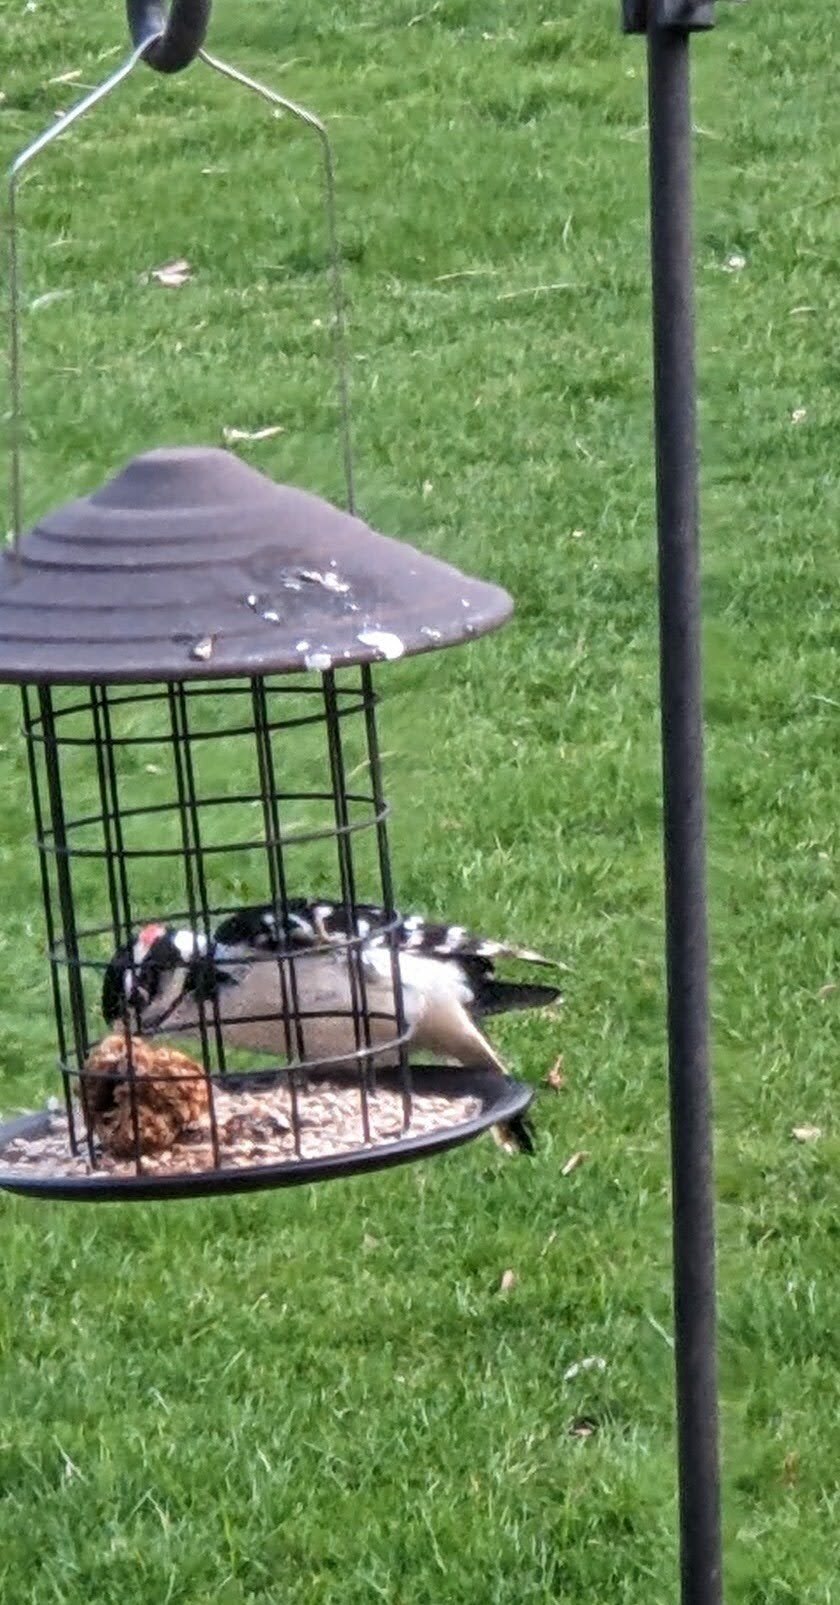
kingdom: Animalia
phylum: Chordata
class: Aves
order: Piciformes
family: Picidae
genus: Leuconotopicus
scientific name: Leuconotopicus villosus
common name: Hairy woodpecker
